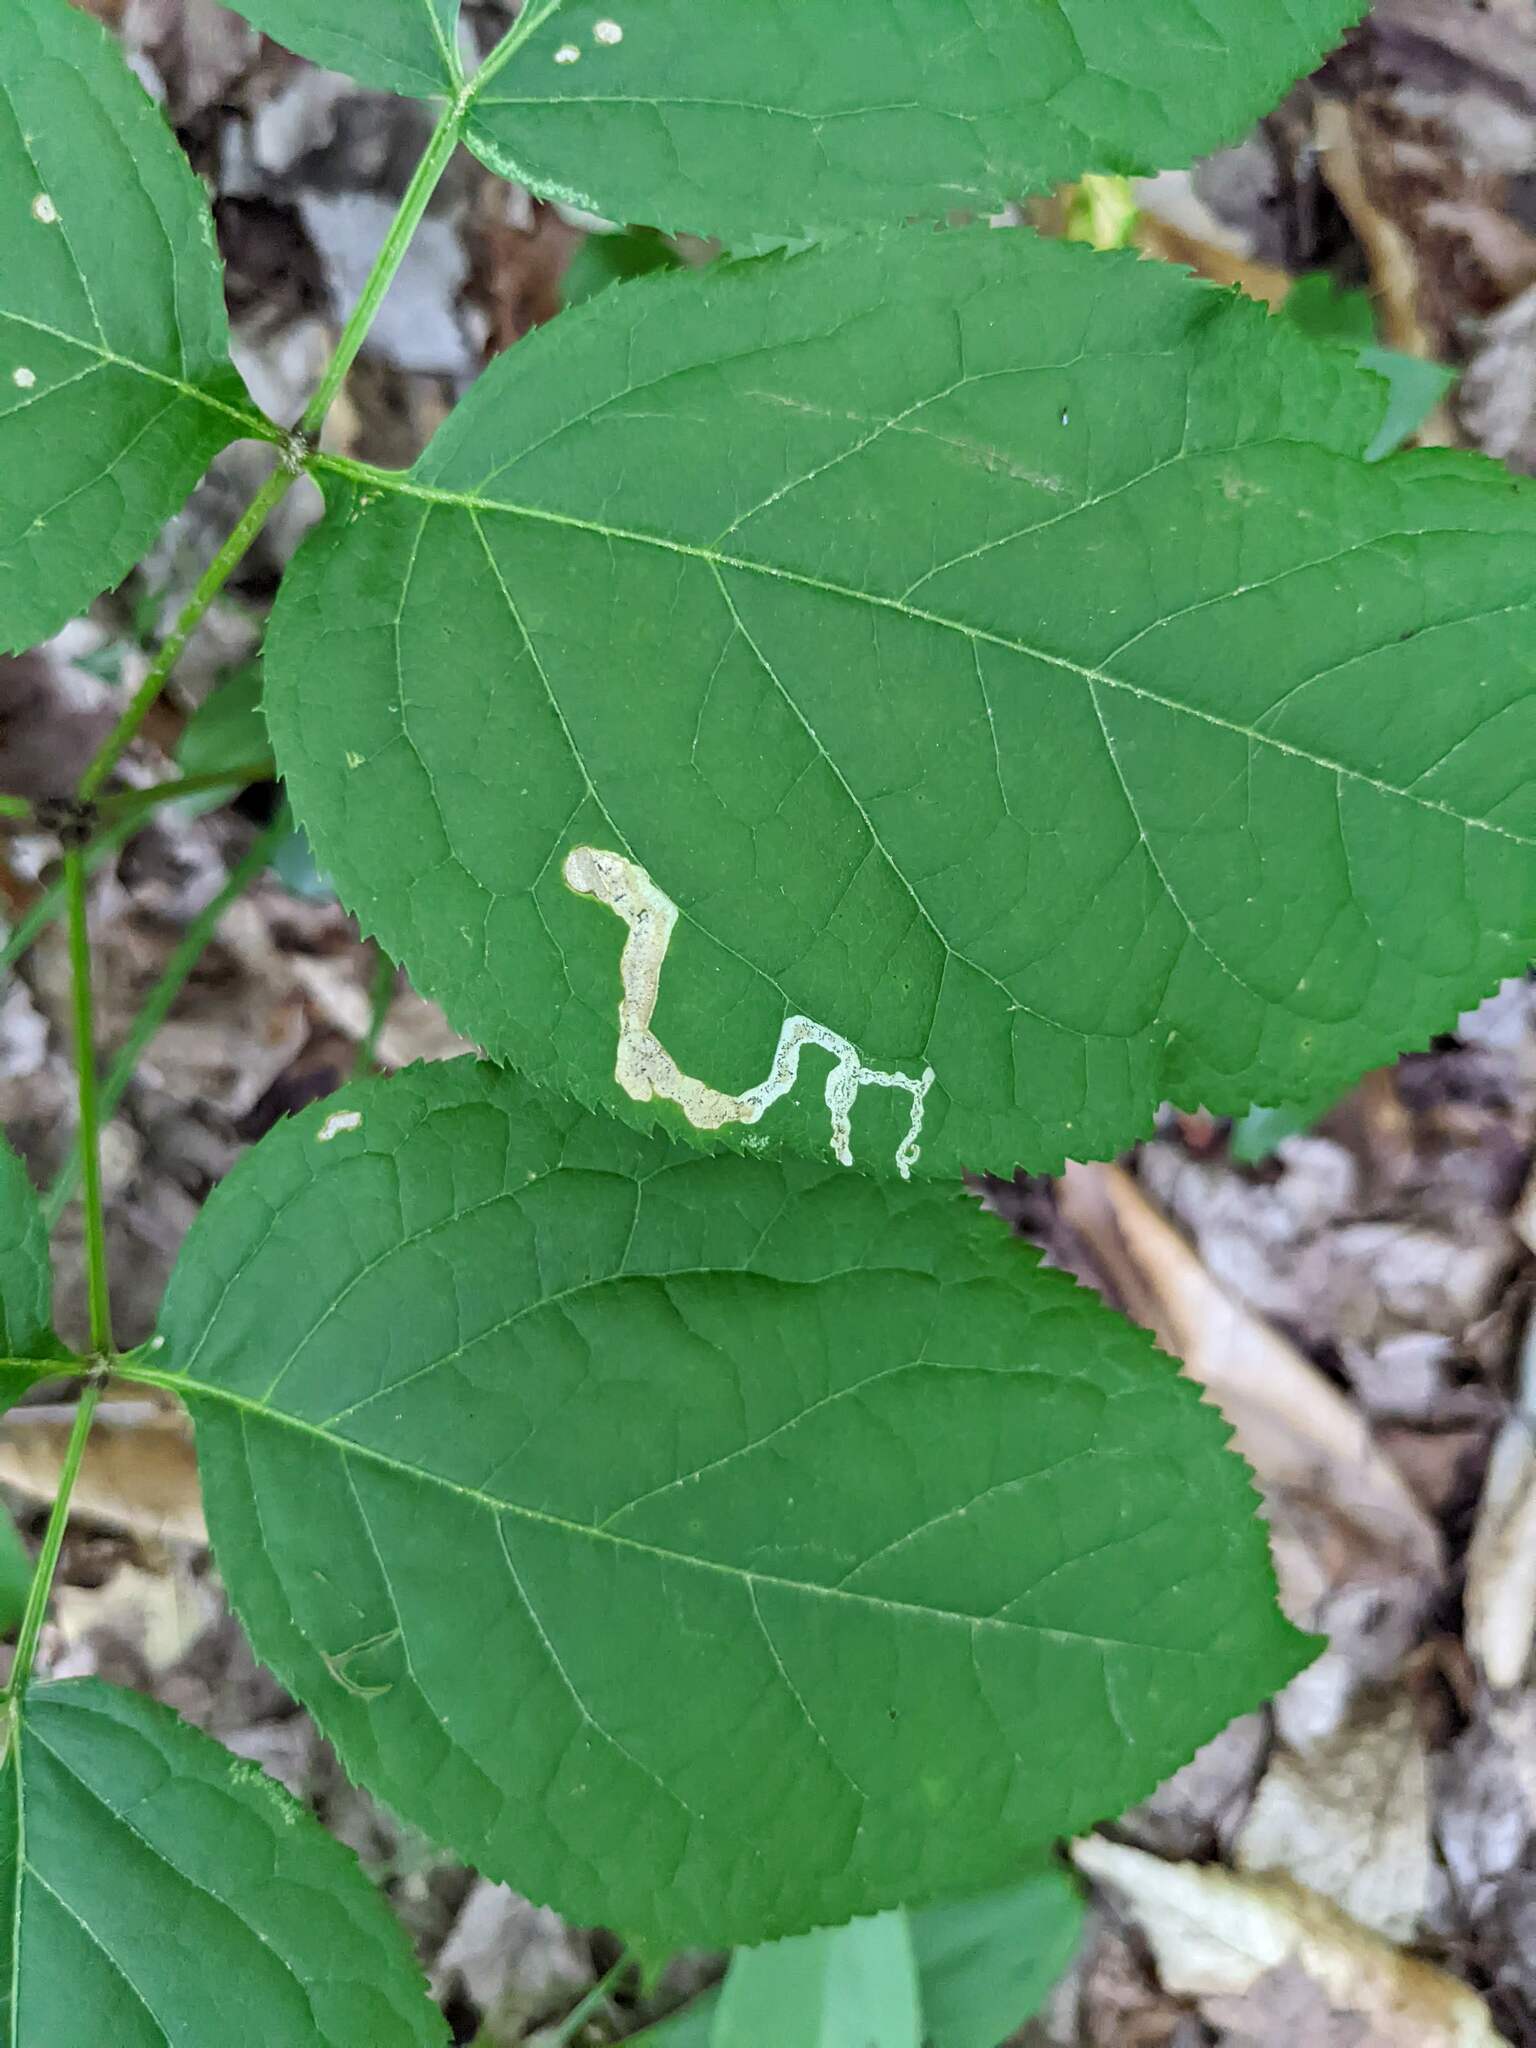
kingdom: Animalia
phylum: Arthropoda
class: Insecta
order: Diptera
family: Agromyzidae
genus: Phytomyza
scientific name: Phytomyza aralivora
